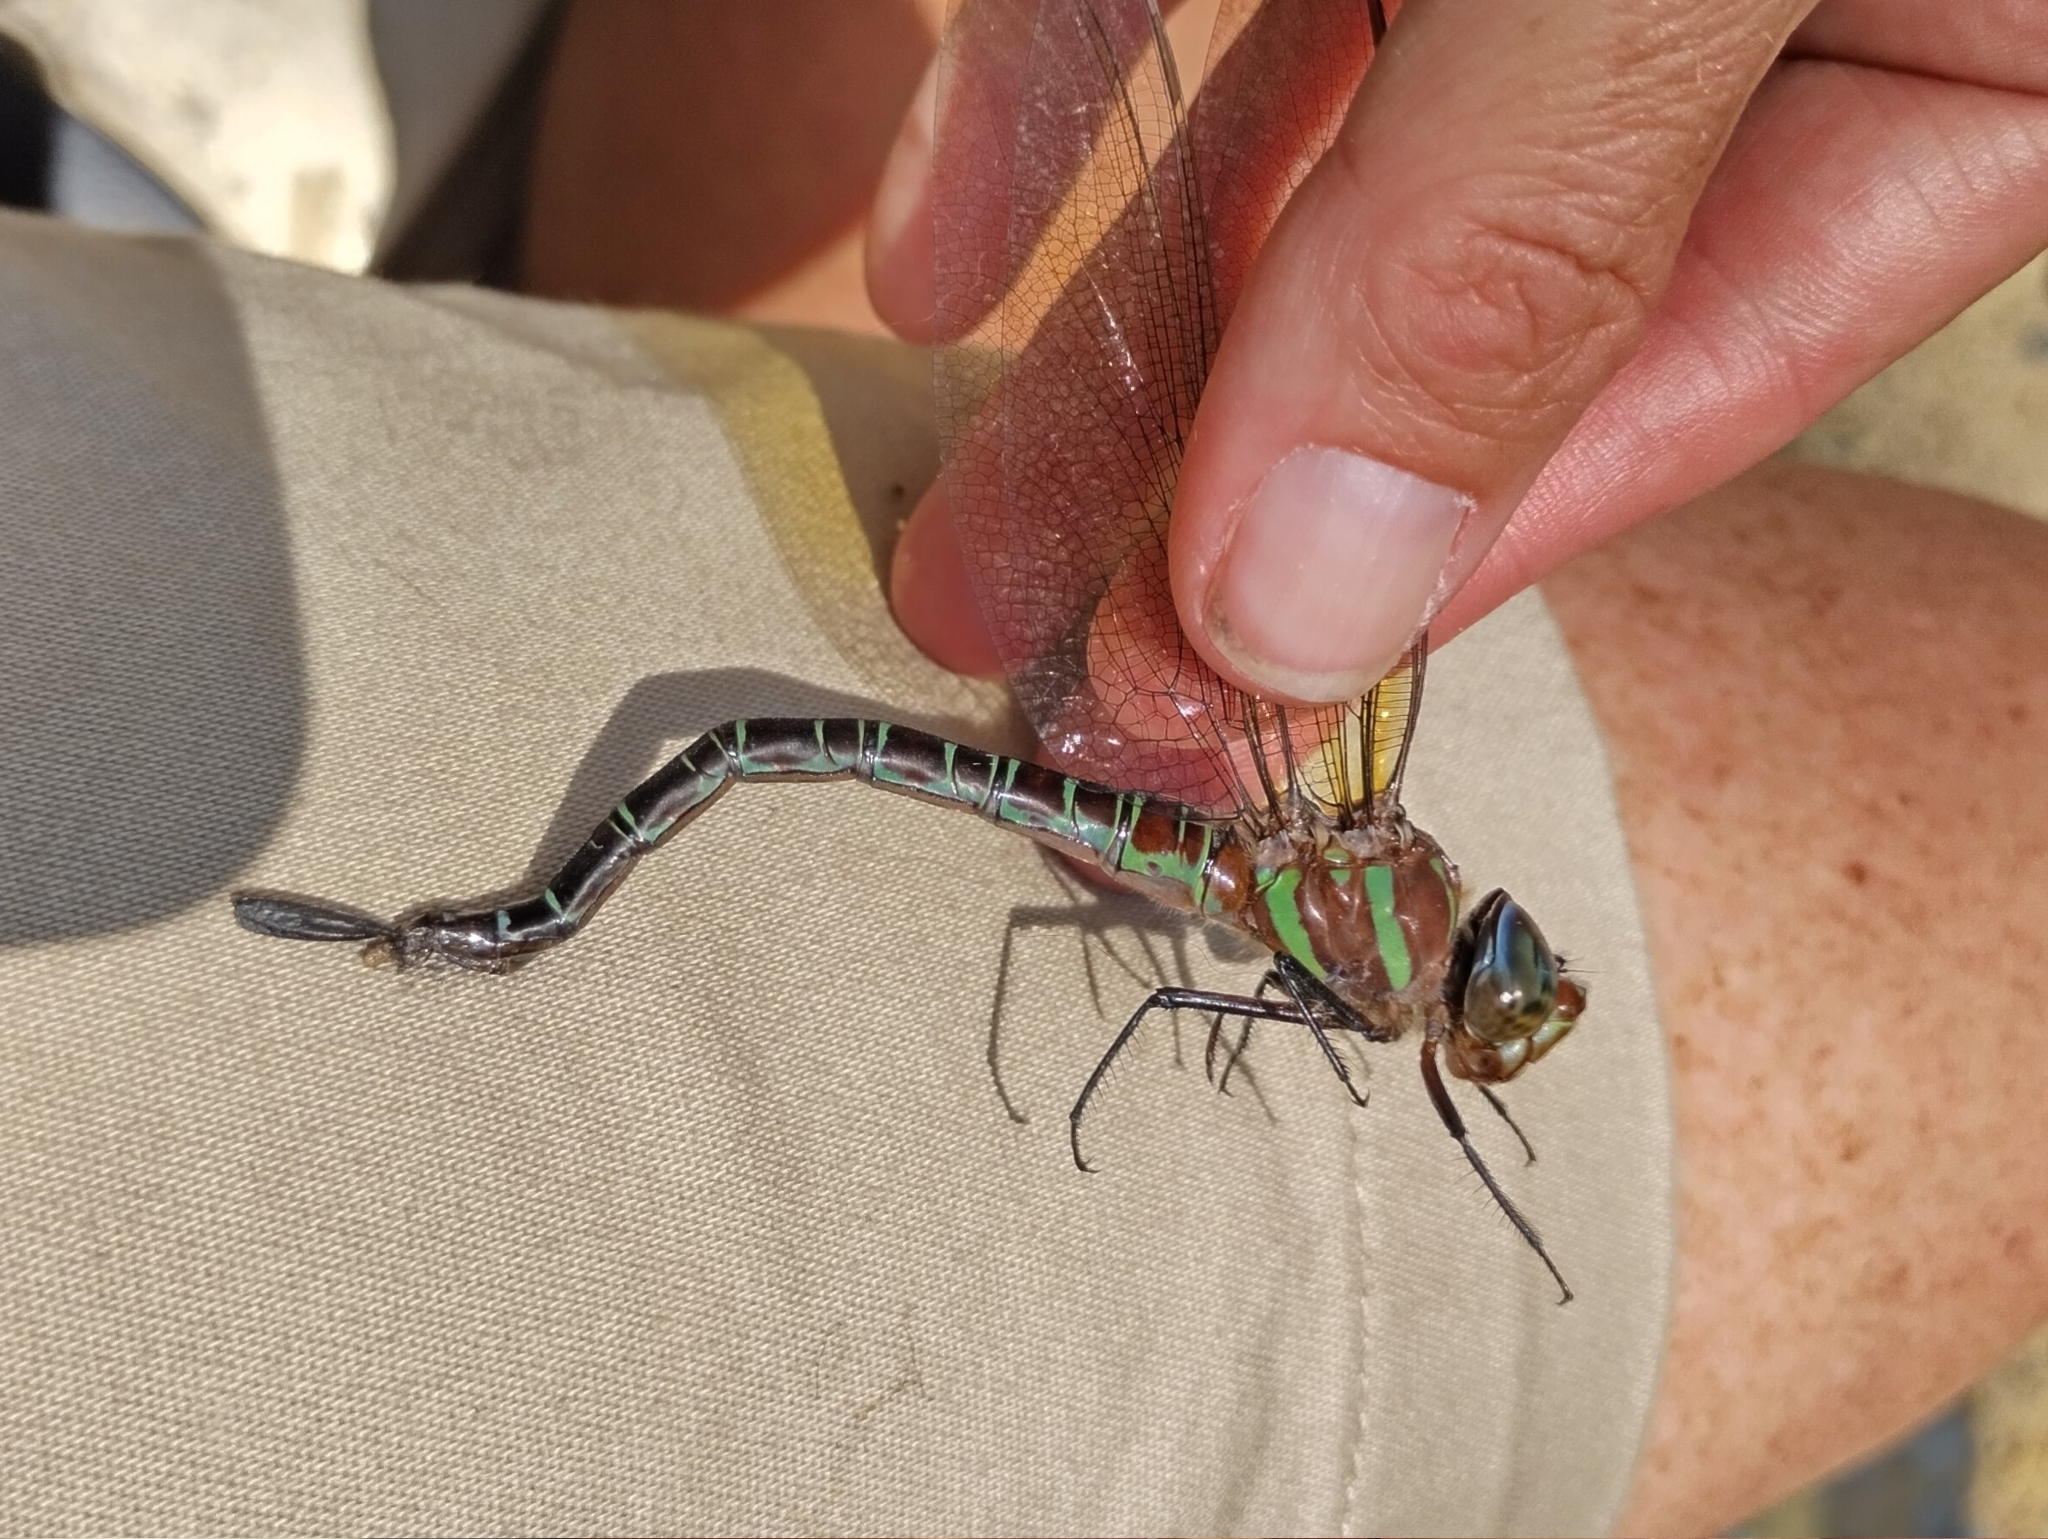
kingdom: Animalia
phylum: Arthropoda
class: Insecta
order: Odonata
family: Aeshnidae
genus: Epiaeschna
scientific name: Epiaeschna heros
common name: Swamp darner
